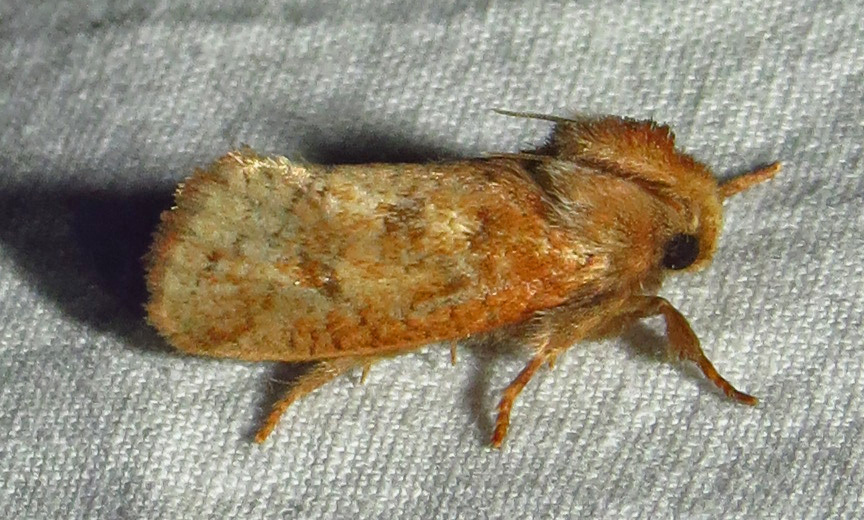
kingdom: Animalia
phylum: Arthropoda
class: Insecta
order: Lepidoptera
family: Tineidae
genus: Acrolophus
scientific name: Acrolophus plumifrontella
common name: Eastern grass tubeworm moth
